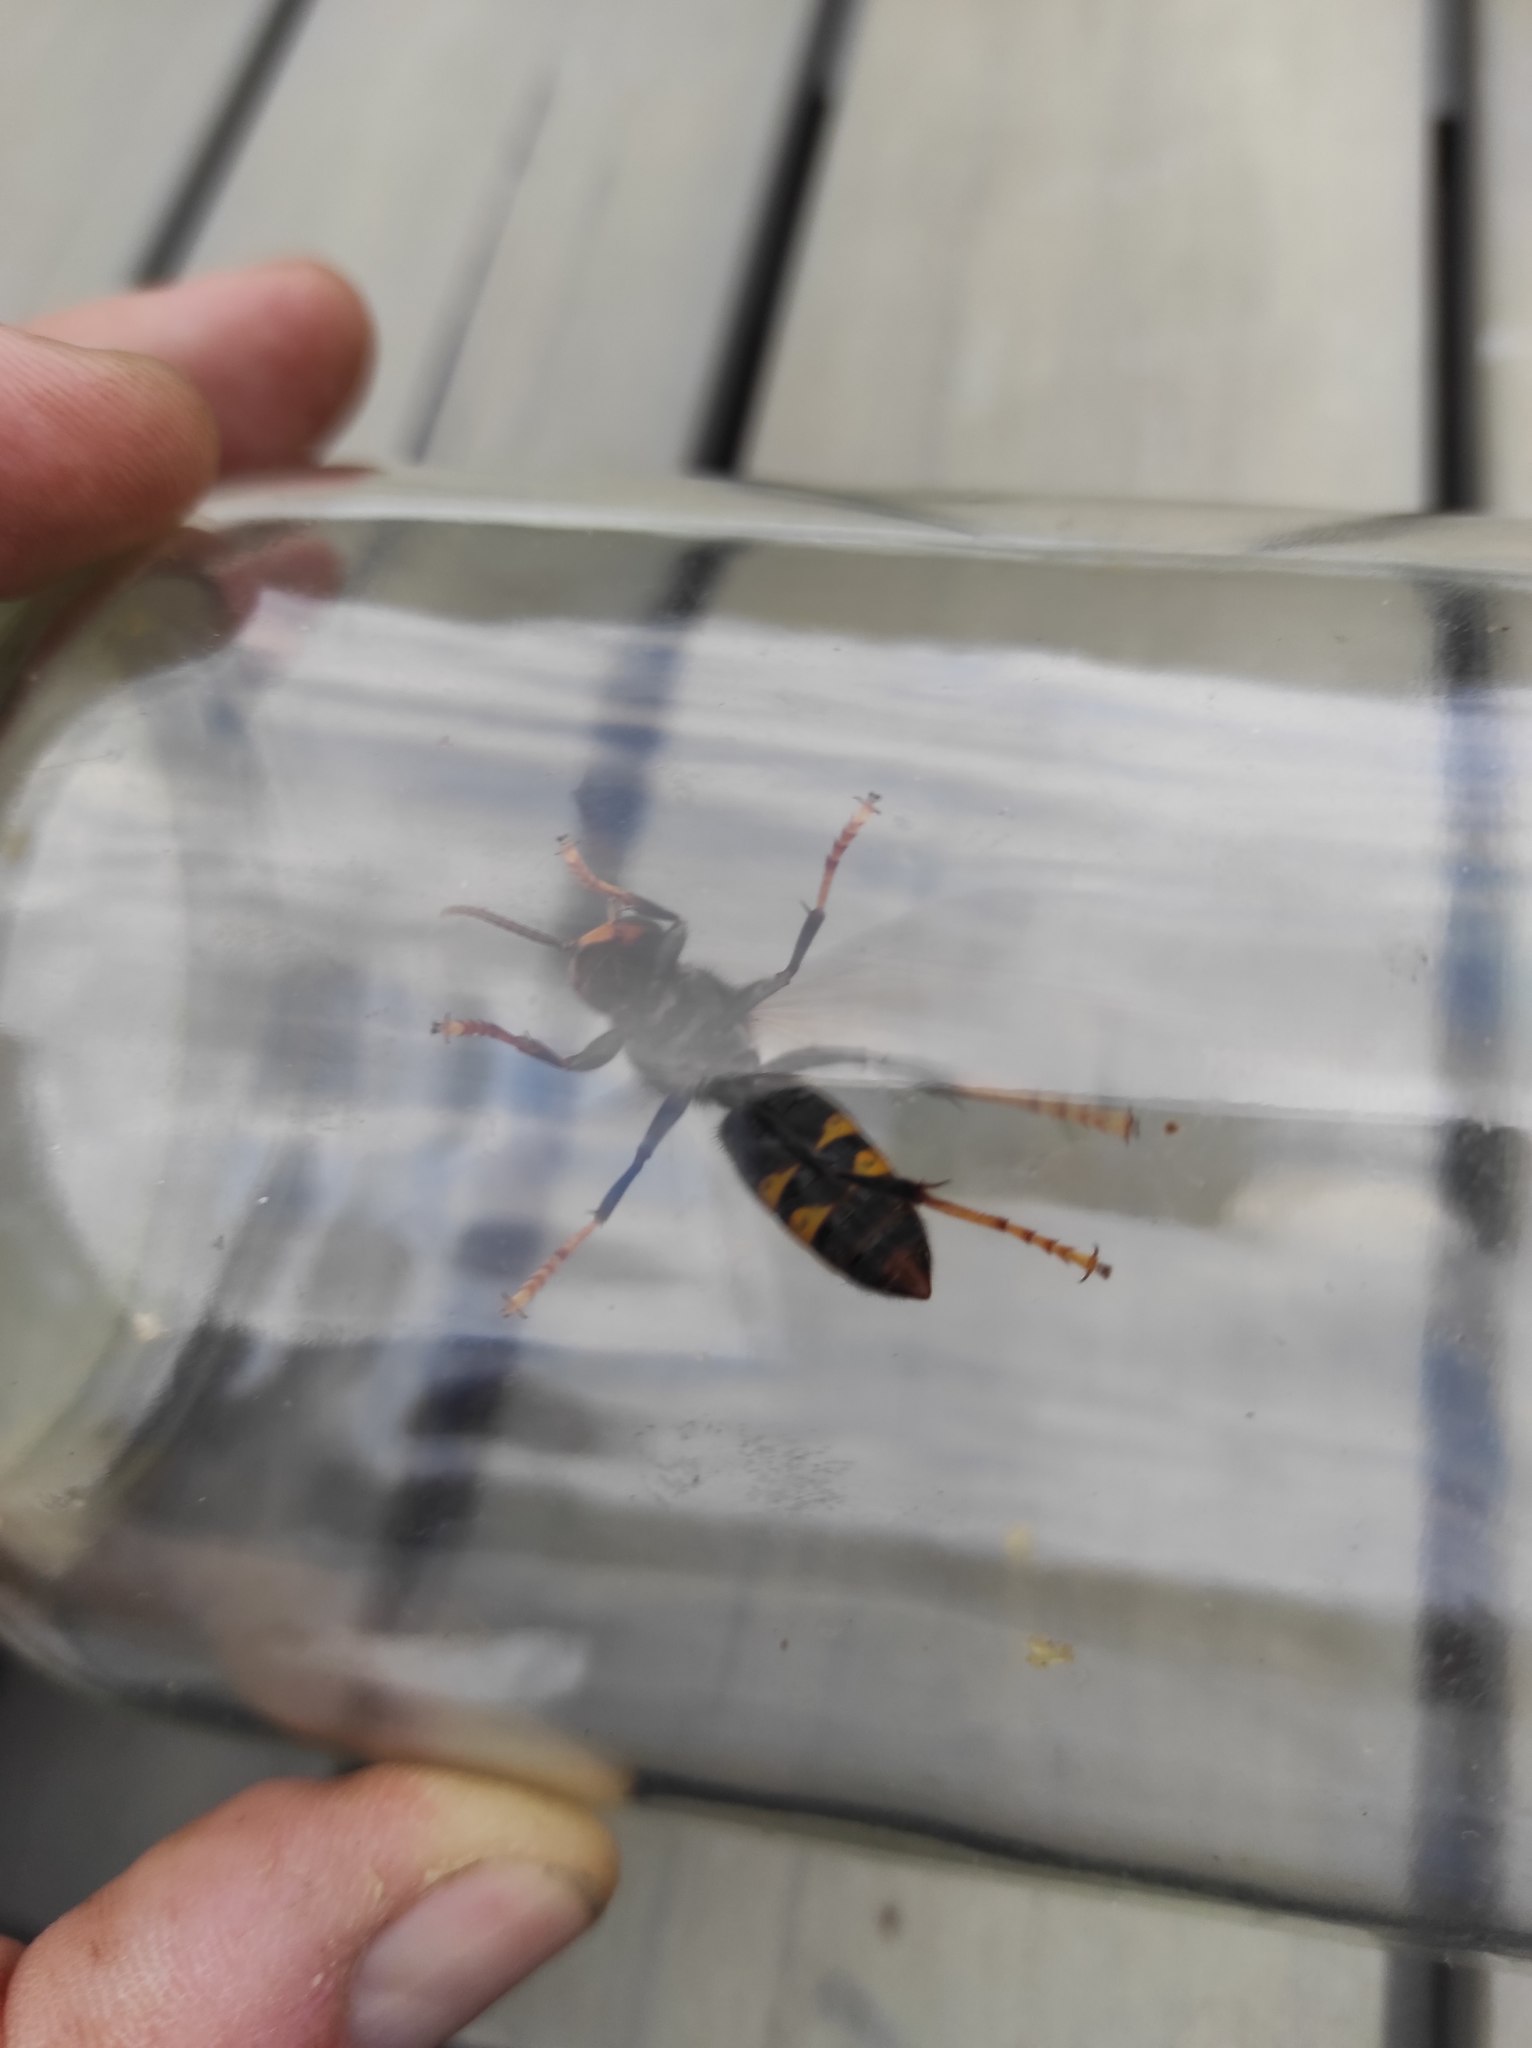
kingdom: Animalia
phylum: Arthropoda
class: Insecta
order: Hymenoptera
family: Vespidae
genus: Vespa
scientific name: Vespa velutina
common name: Asian hornet
